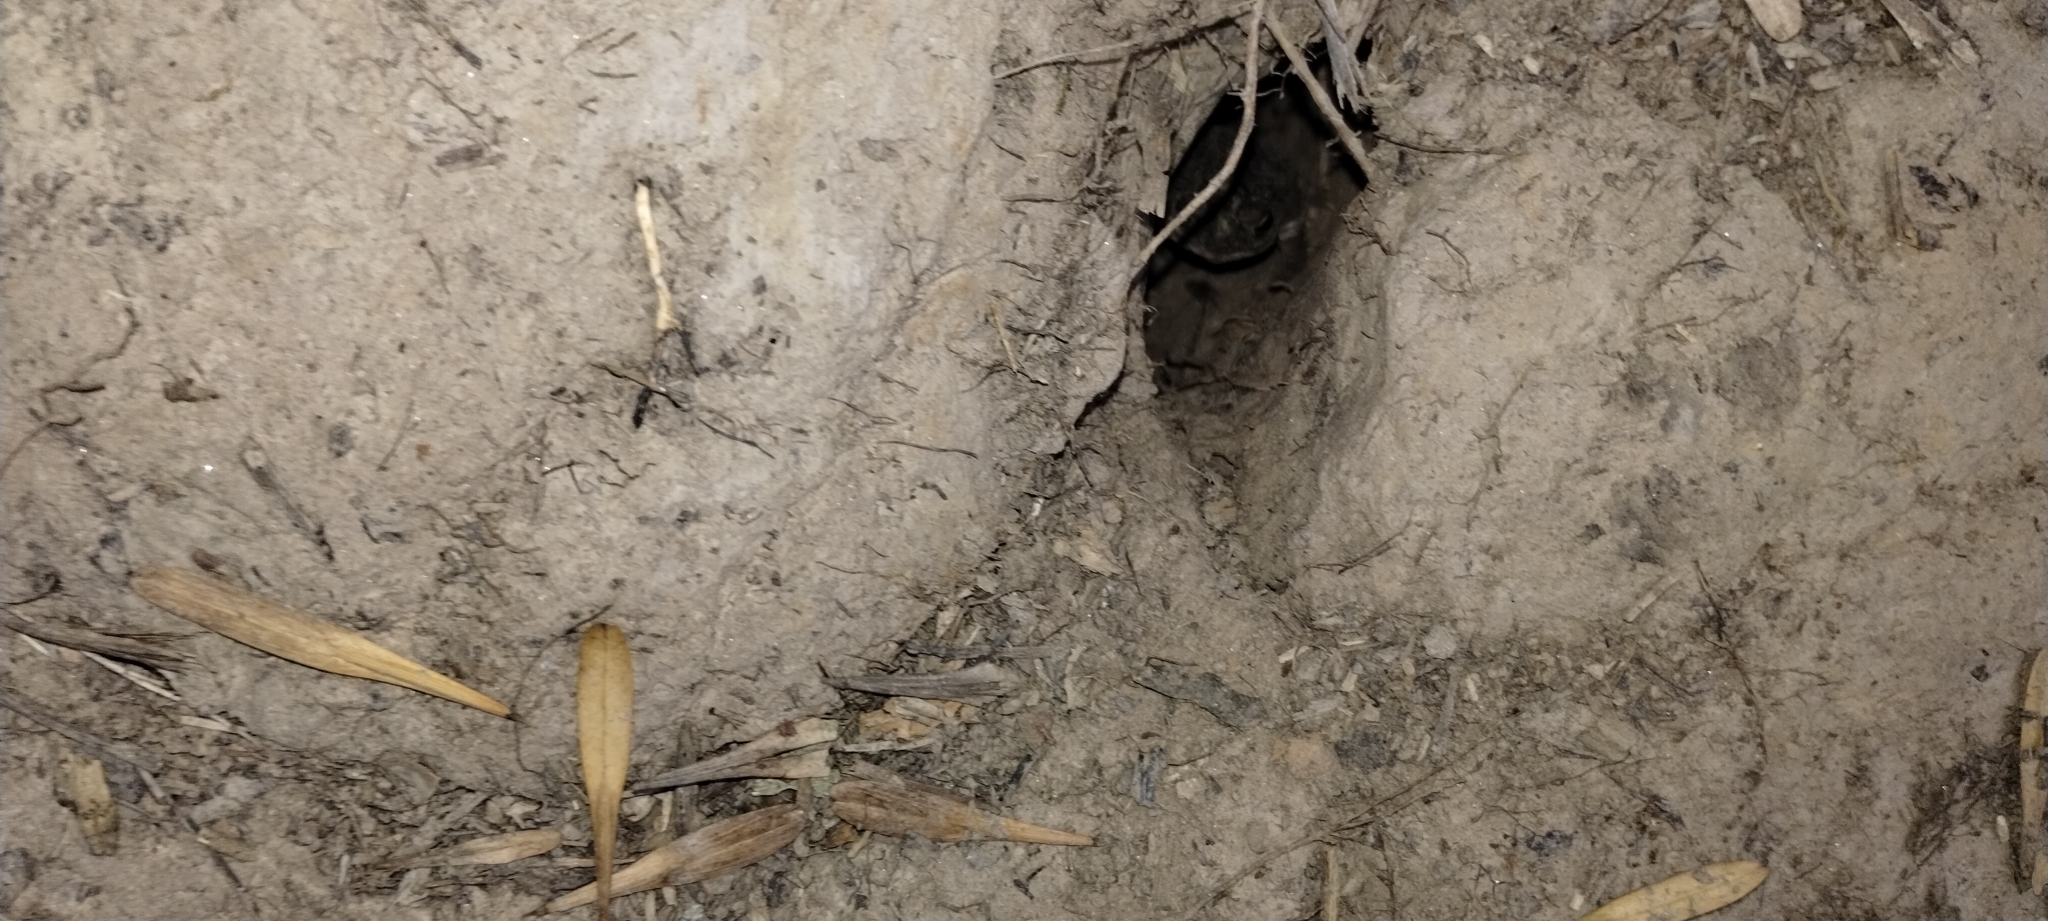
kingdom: Animalia
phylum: Chordata
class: Amphibia
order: Anura
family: Bufonidae
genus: Rhinella
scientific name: Rhinella dorbignyi
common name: D´orbigny’s toad
